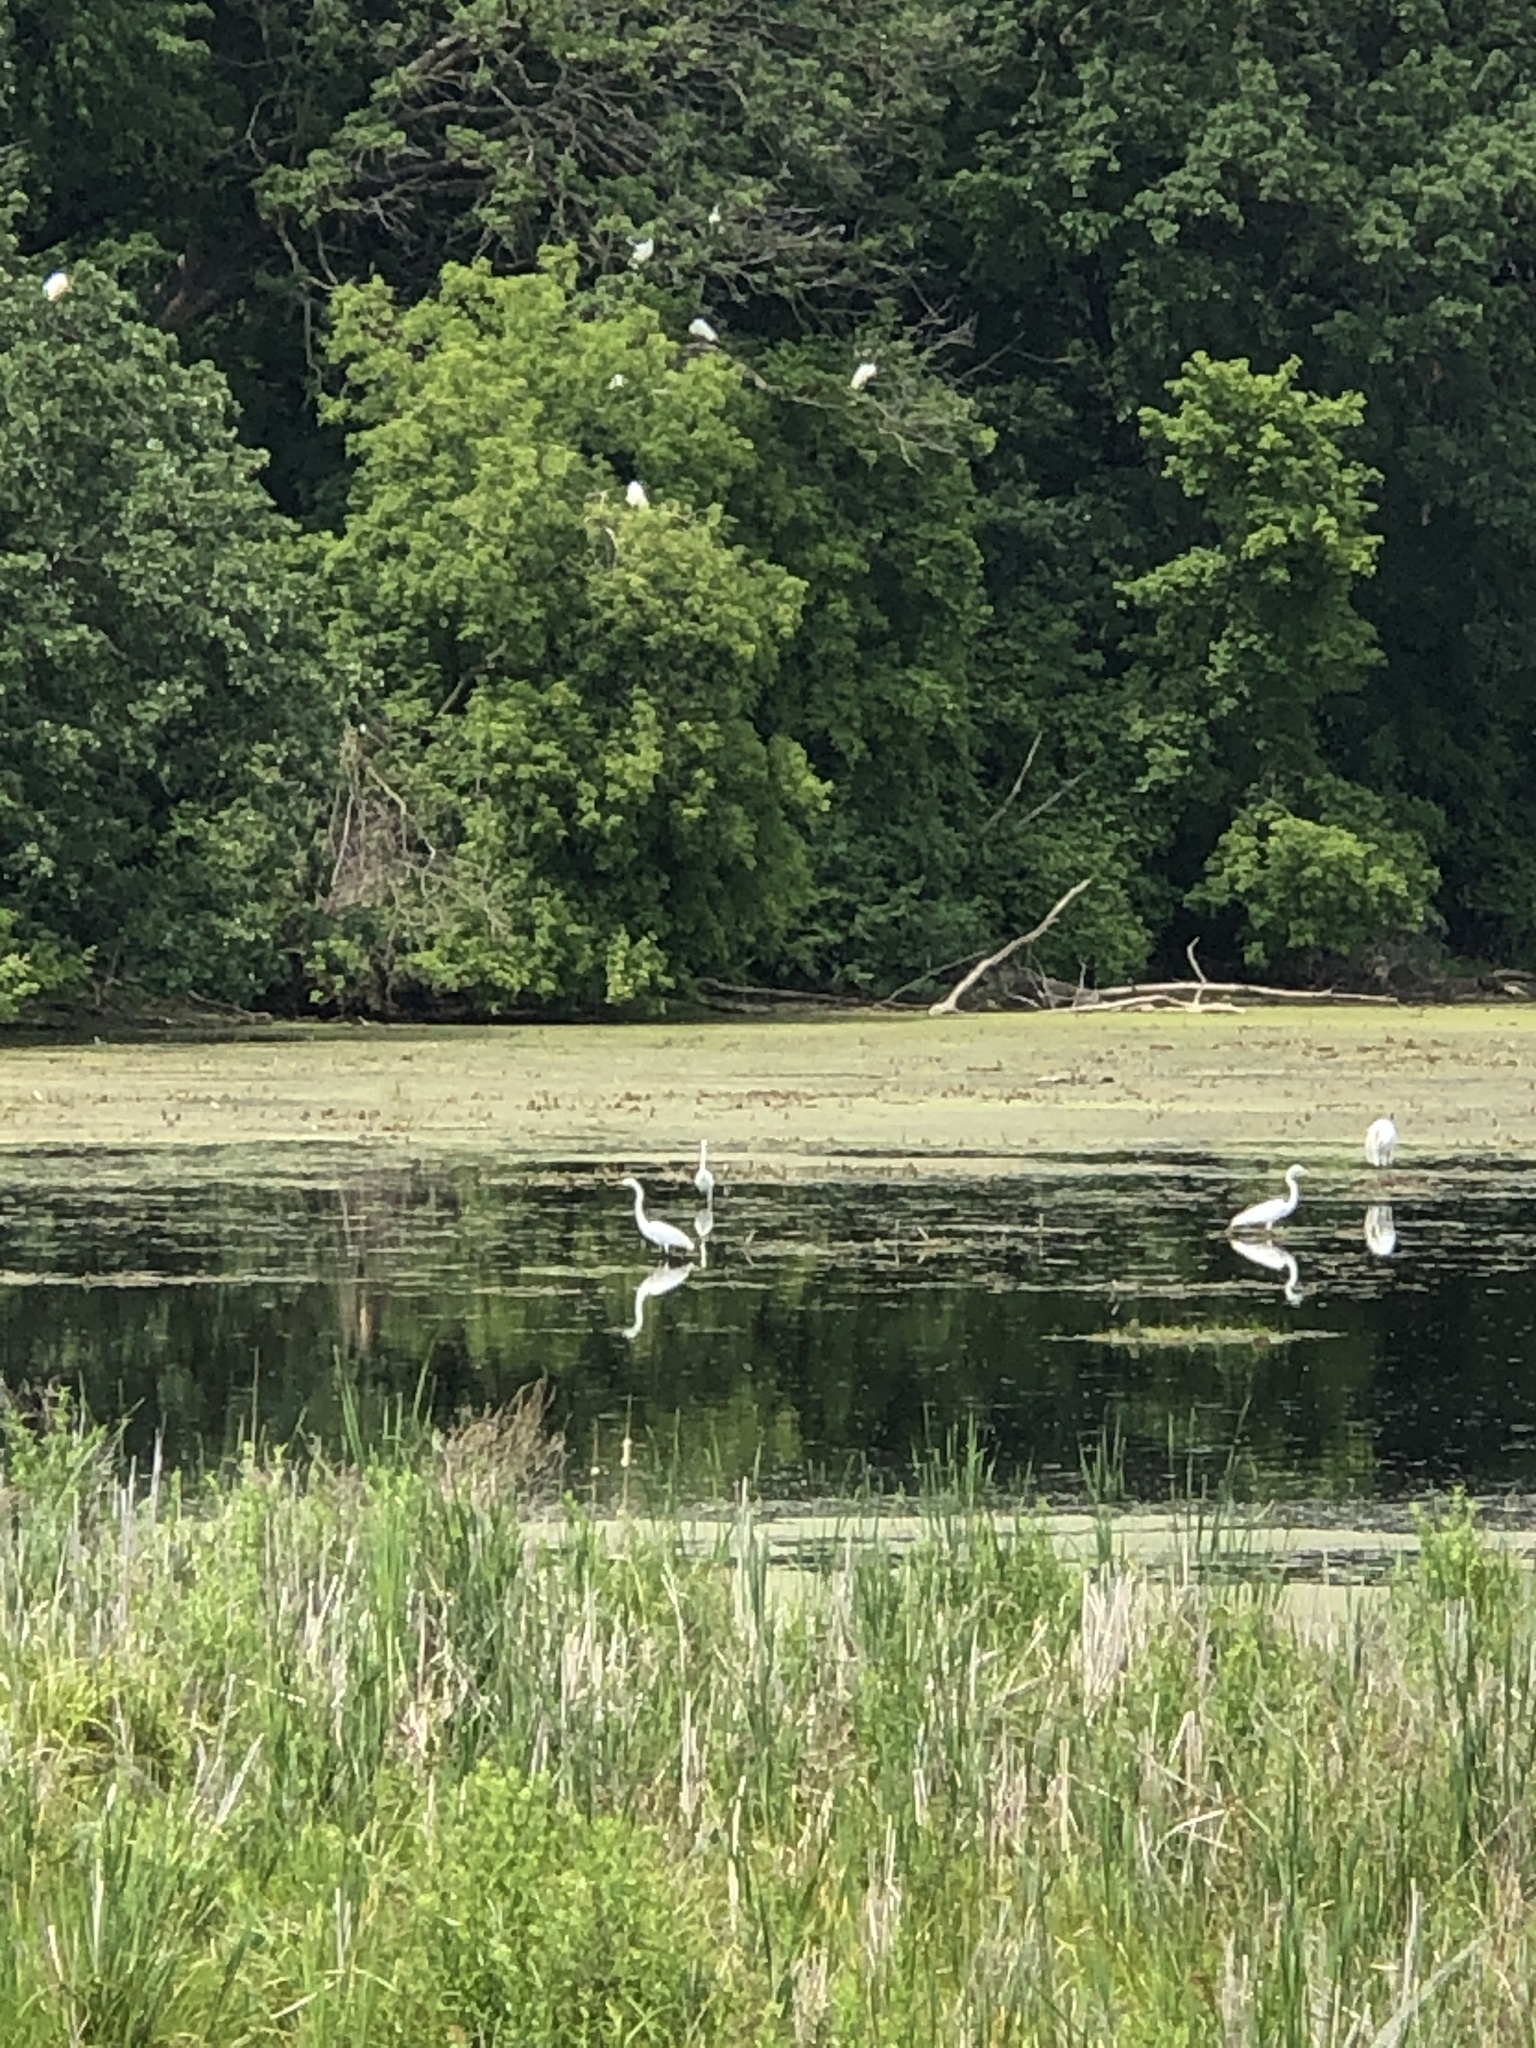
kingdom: Animalia
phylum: Chordata
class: Aves
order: Pelecaniformes
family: Ardeidae
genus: Ardea
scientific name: Ardea alba
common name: Great egret
